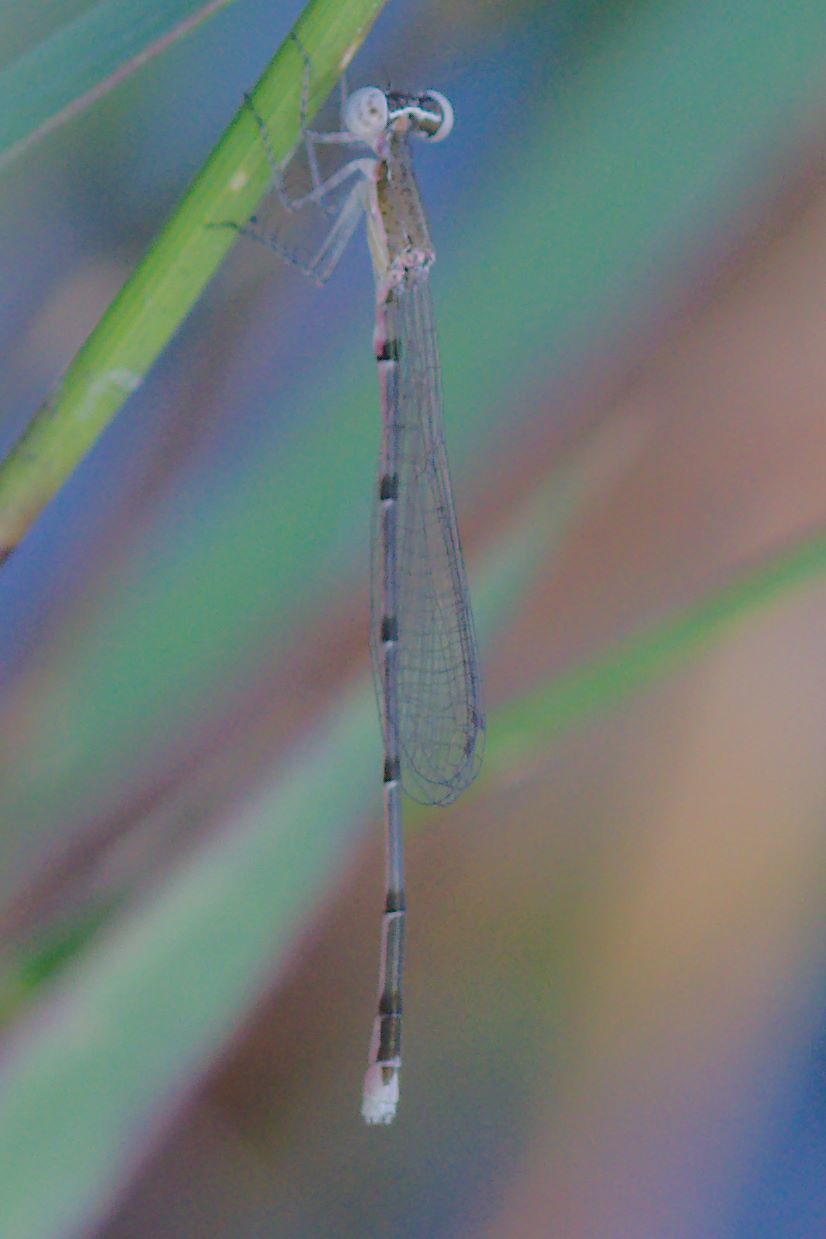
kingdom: Animalia
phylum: Arthropoda
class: Insecta
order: Odonata
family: Coenagrionidae
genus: Nehalennia
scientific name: Nehalennia integricollis
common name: Southern sprite
